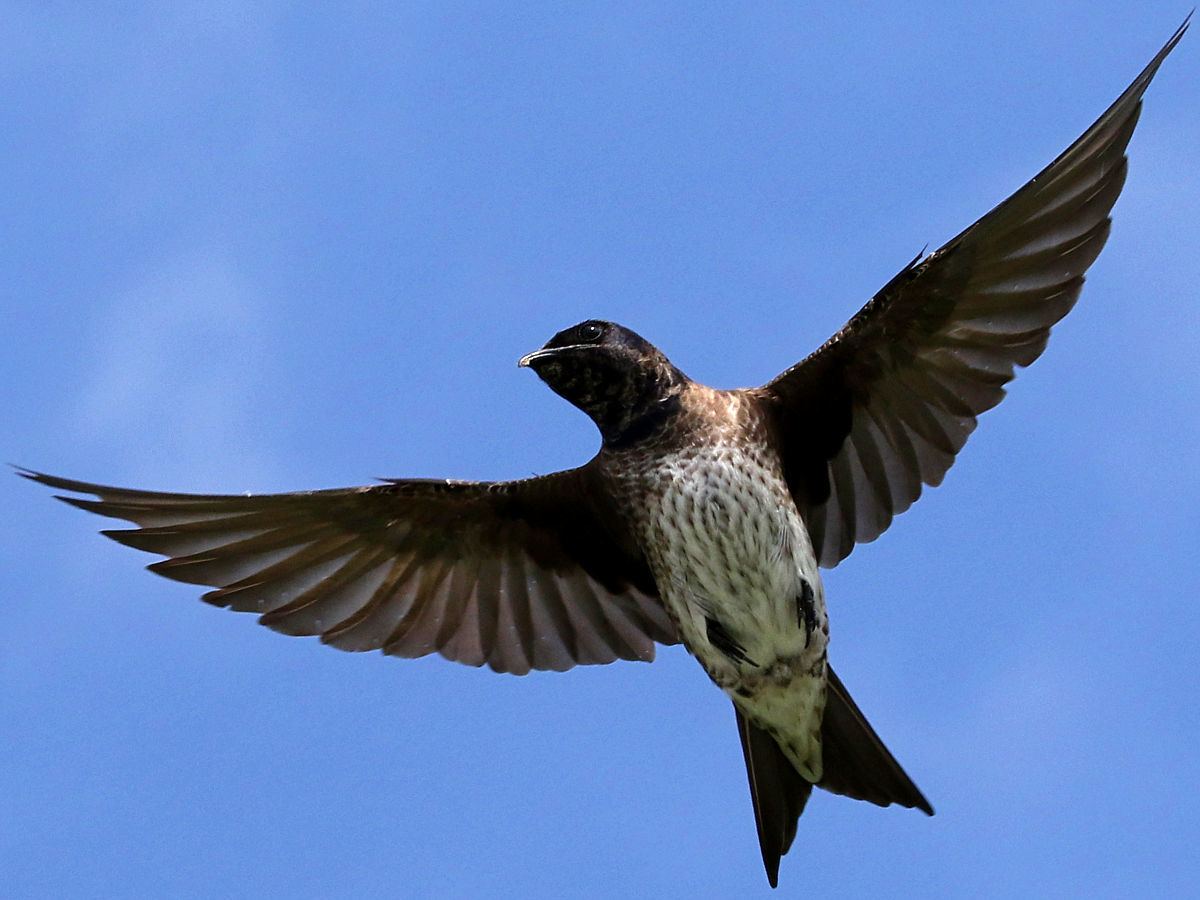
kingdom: Animalia
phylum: Chordata
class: Aves
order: Passeriformes
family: Hirundinidae
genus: Progne
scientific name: Progne subis
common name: Purple martin
